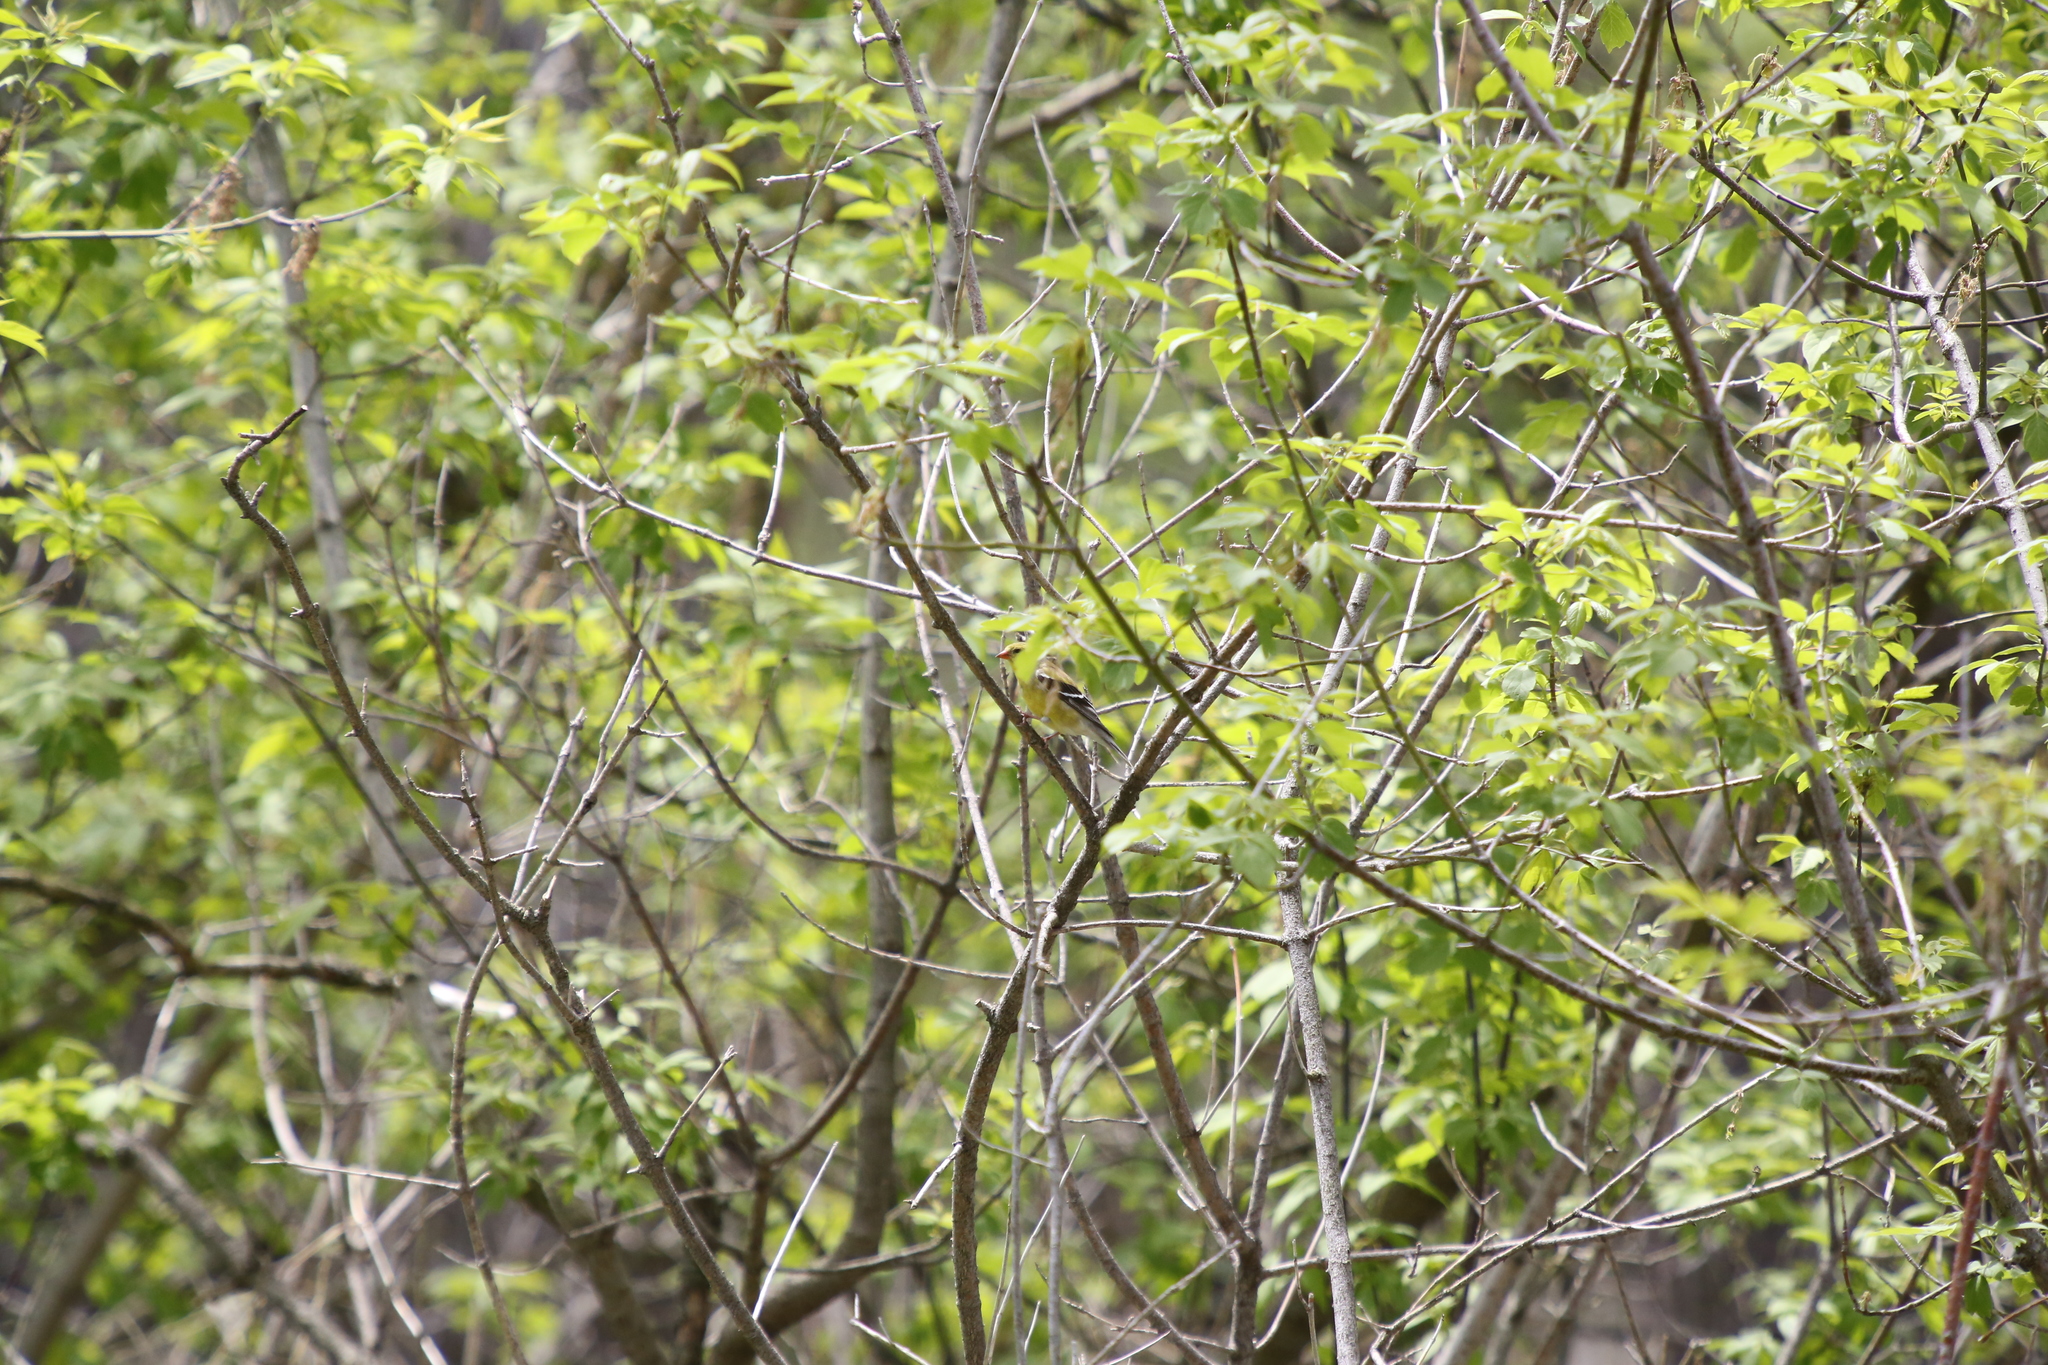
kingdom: Animalia
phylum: Chordata
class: Aves
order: Passeriformes
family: Fringillidae
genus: Spinus
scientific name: Spinus tristis
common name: American goldfinch
